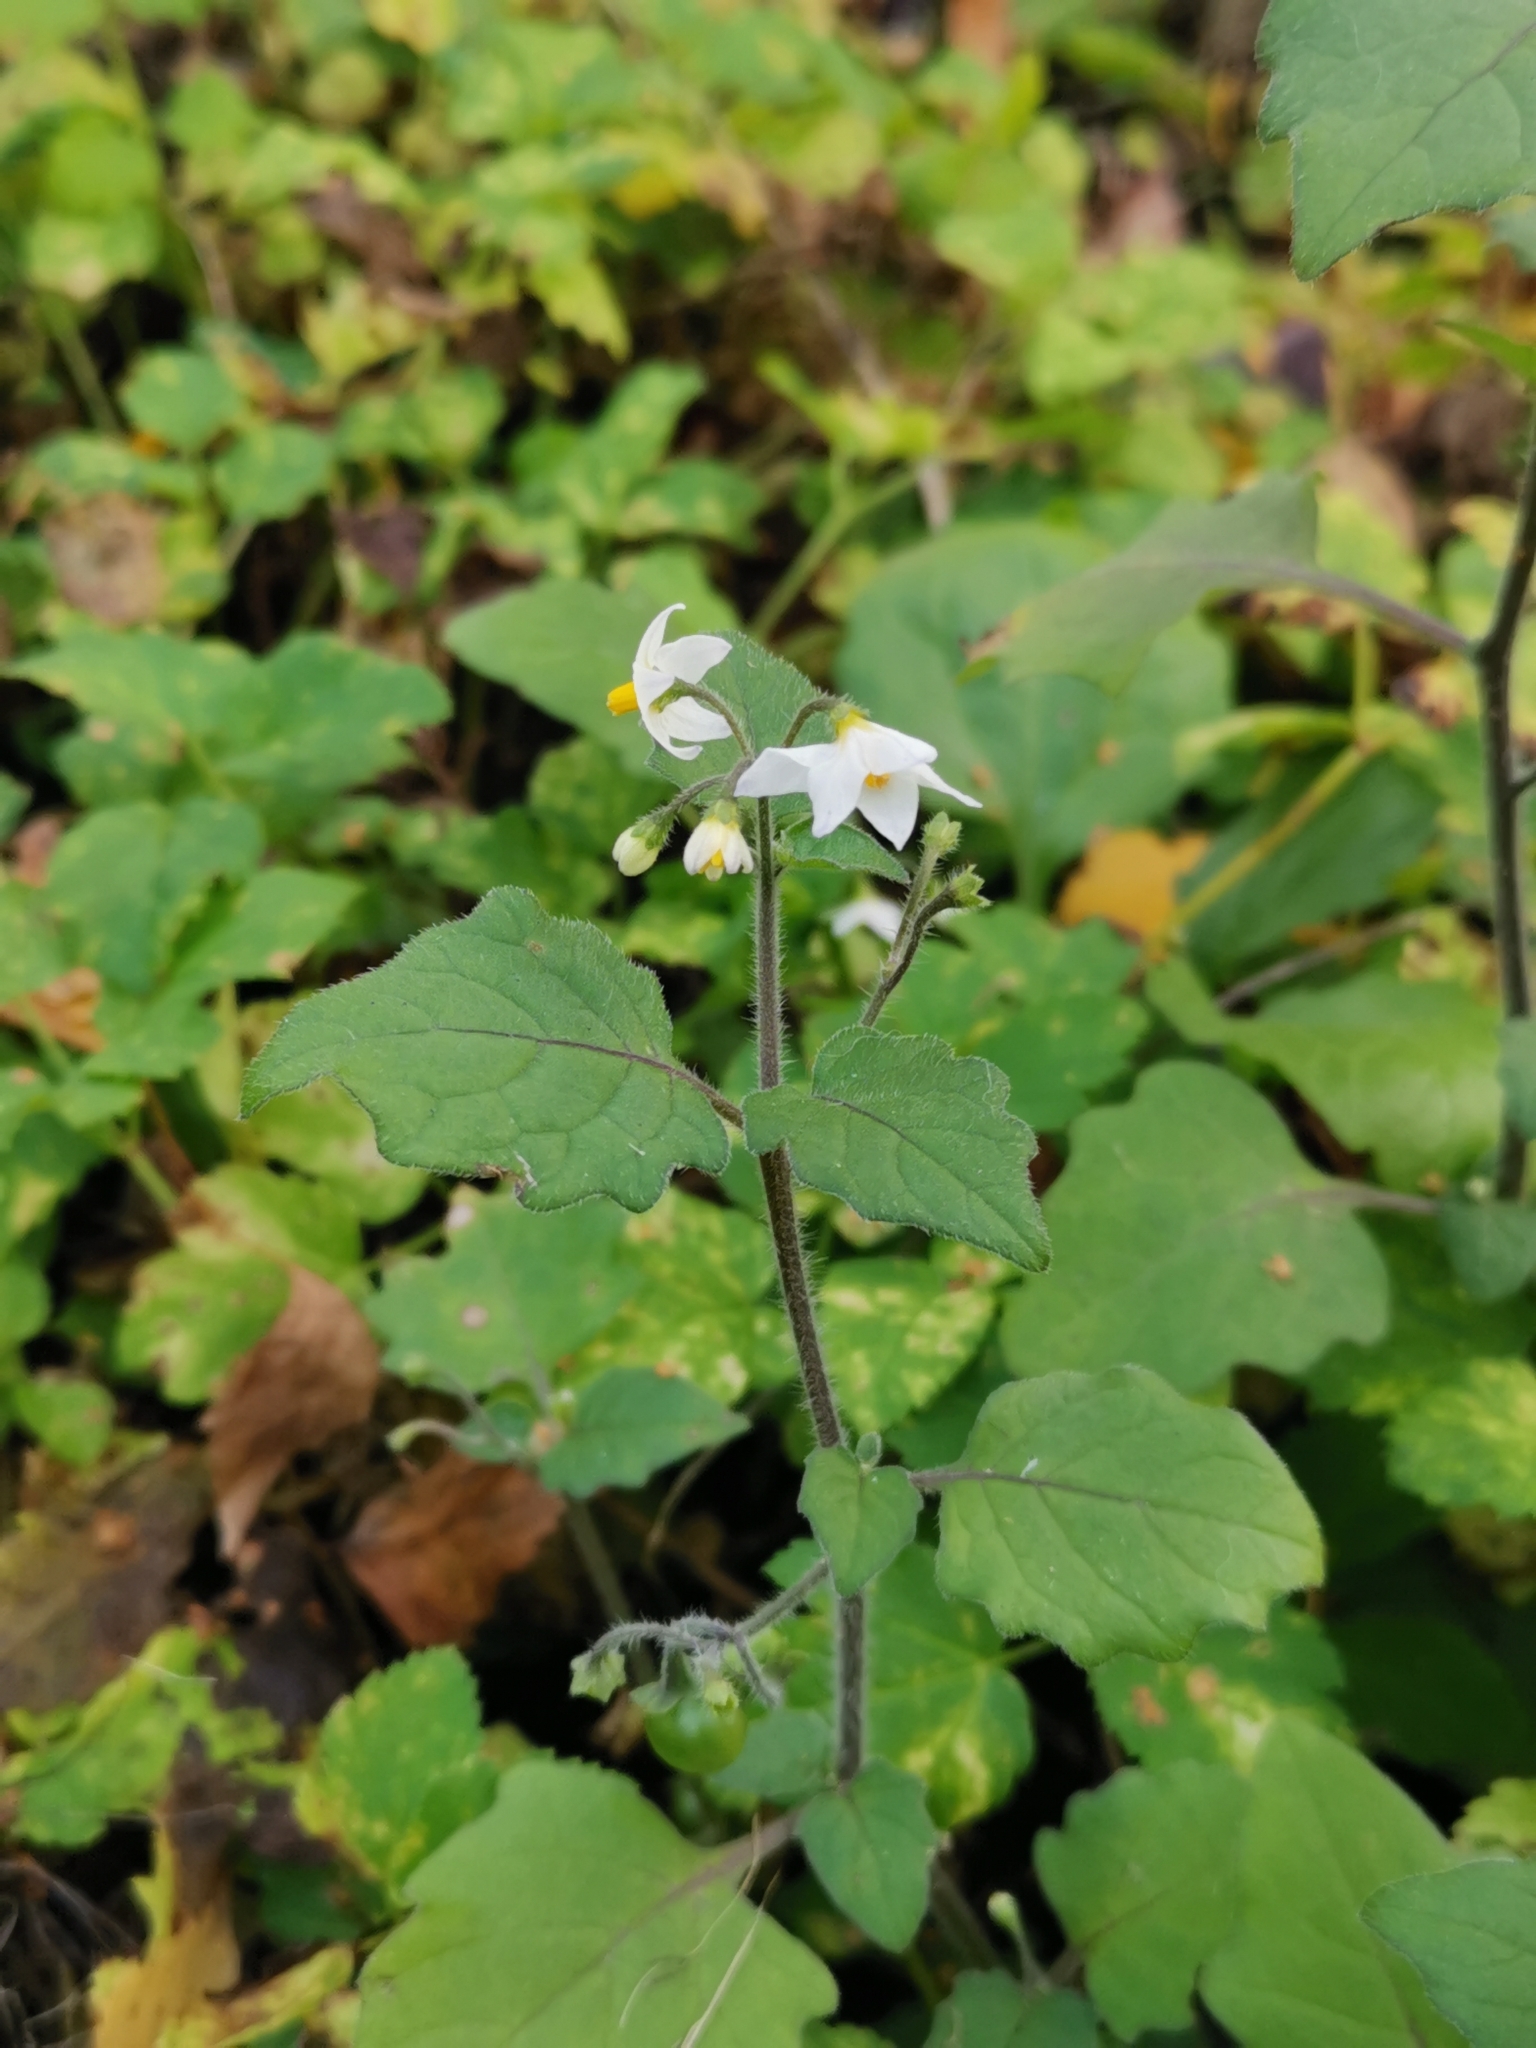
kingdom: Plantae
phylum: Tracheophyta
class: Magnoliopsida
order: Solanales
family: Solanaceae
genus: Solanum
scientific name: Solanum nigrum
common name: Black nightshade
